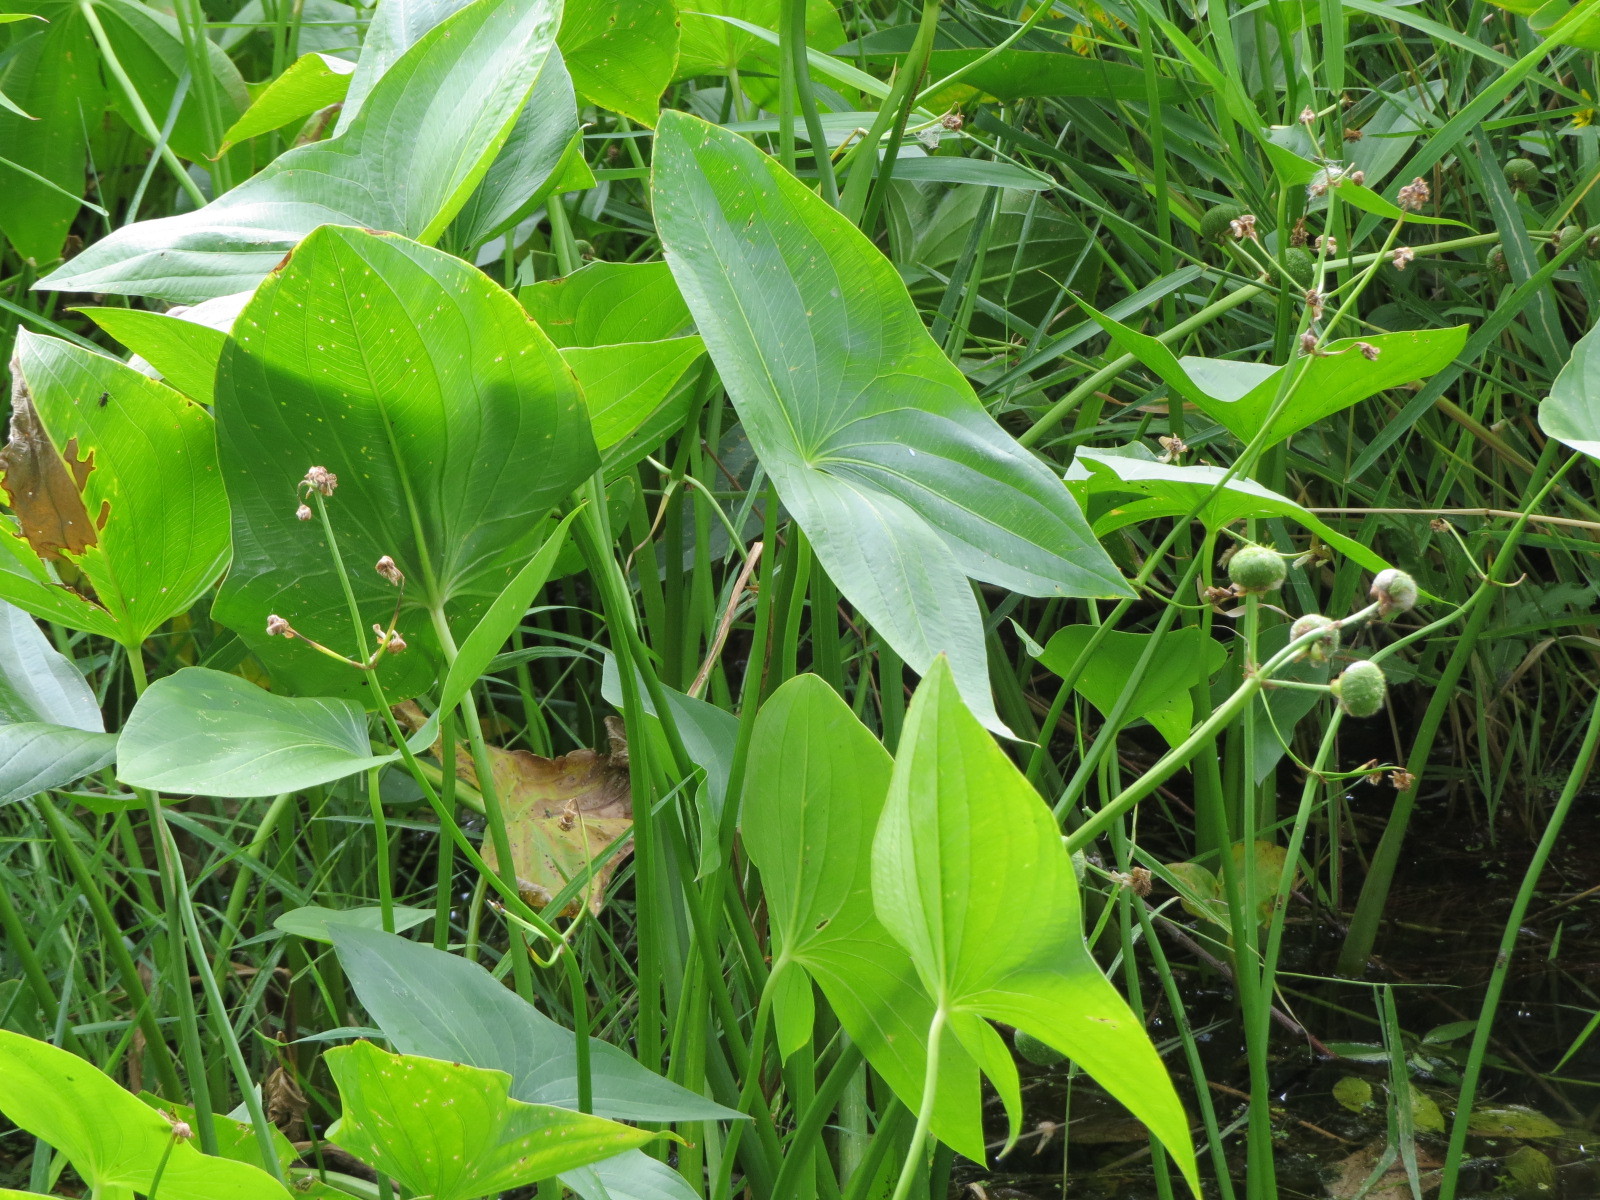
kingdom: Plantae
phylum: Tracheophyta
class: Liliopsida
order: Alismatales
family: Alismataceae
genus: Sagittaria
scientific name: Sagittaria latifolia
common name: Duck-potato
